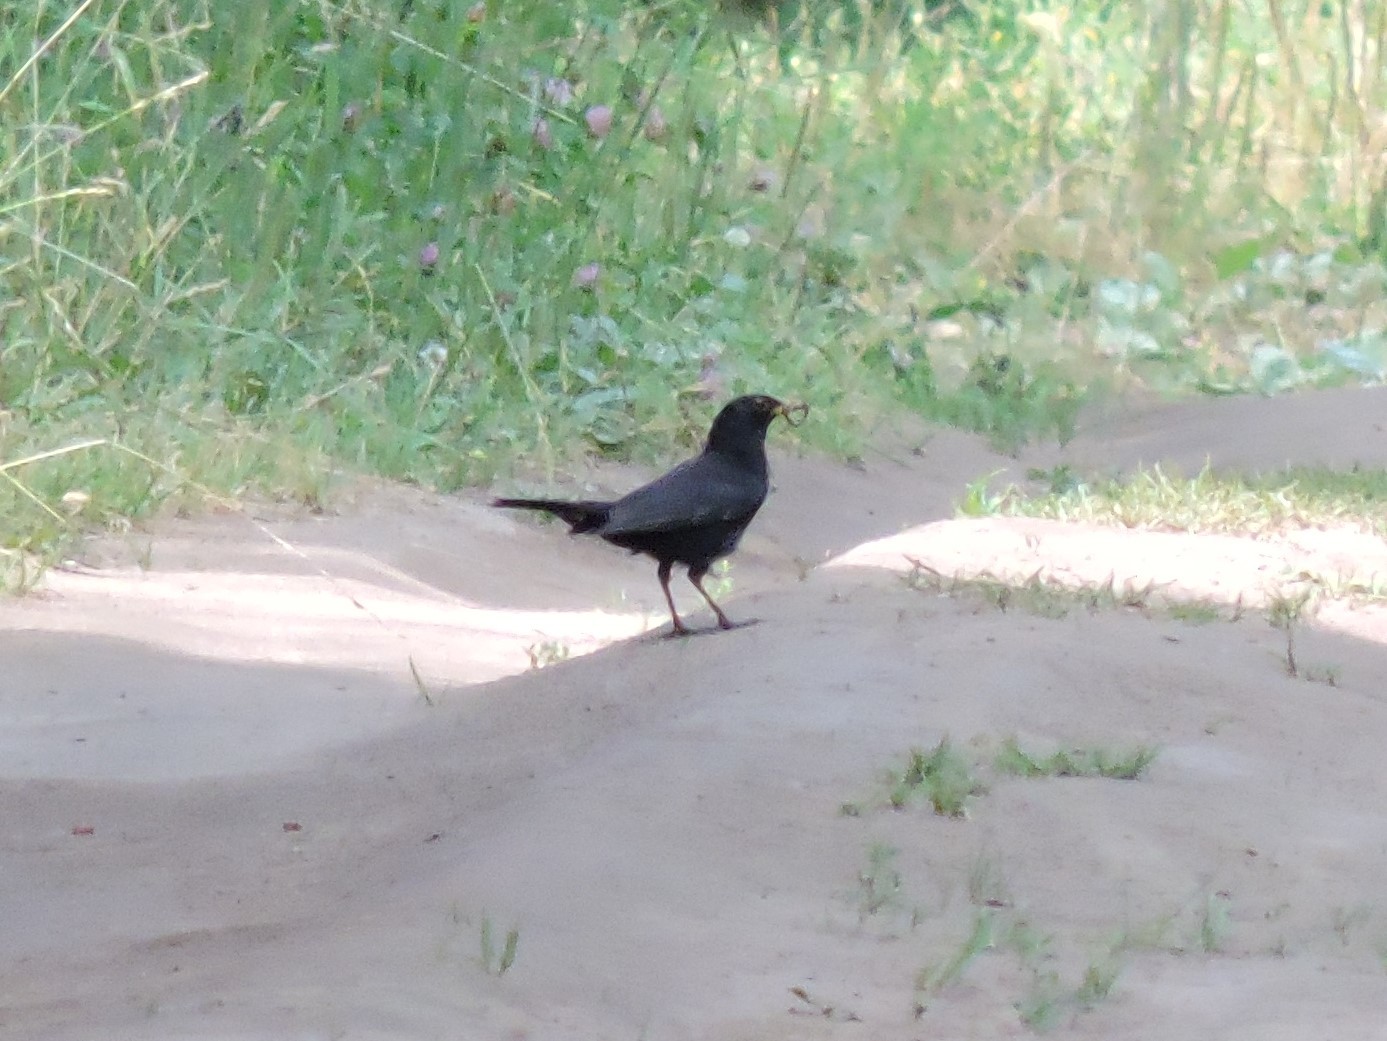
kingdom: Animalia
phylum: Chordata
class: Aves
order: Passeriformes
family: Turdidae
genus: Turdus
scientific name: Turdus merula
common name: Common blackbird
